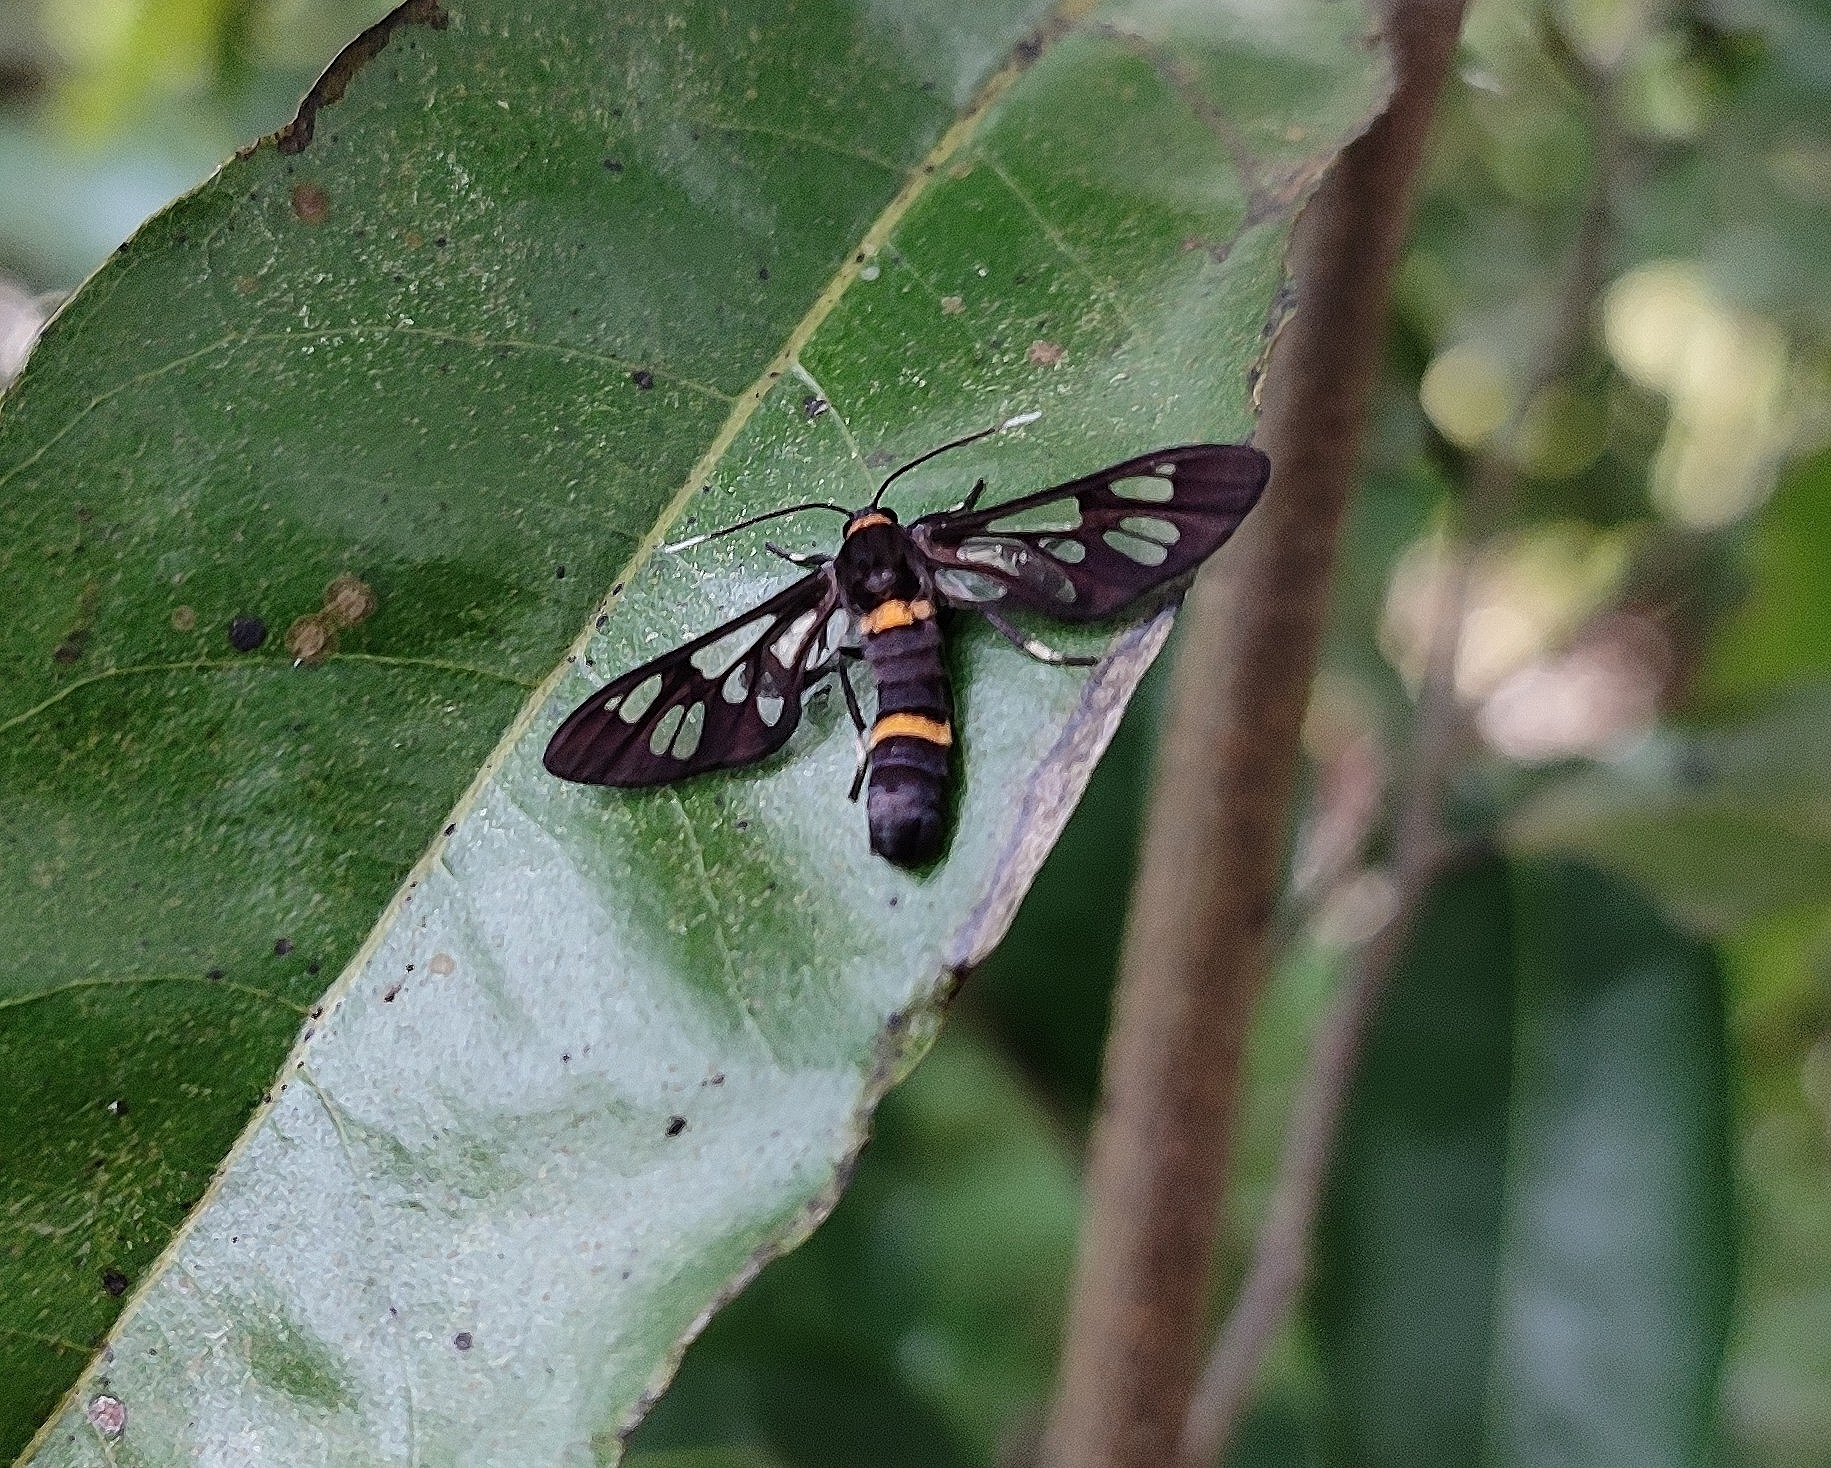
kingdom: Animalia
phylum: Arthropoda
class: Insecta
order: Lepidoptera
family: Erebidae
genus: Syntomoides
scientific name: Syntomoides imaon
